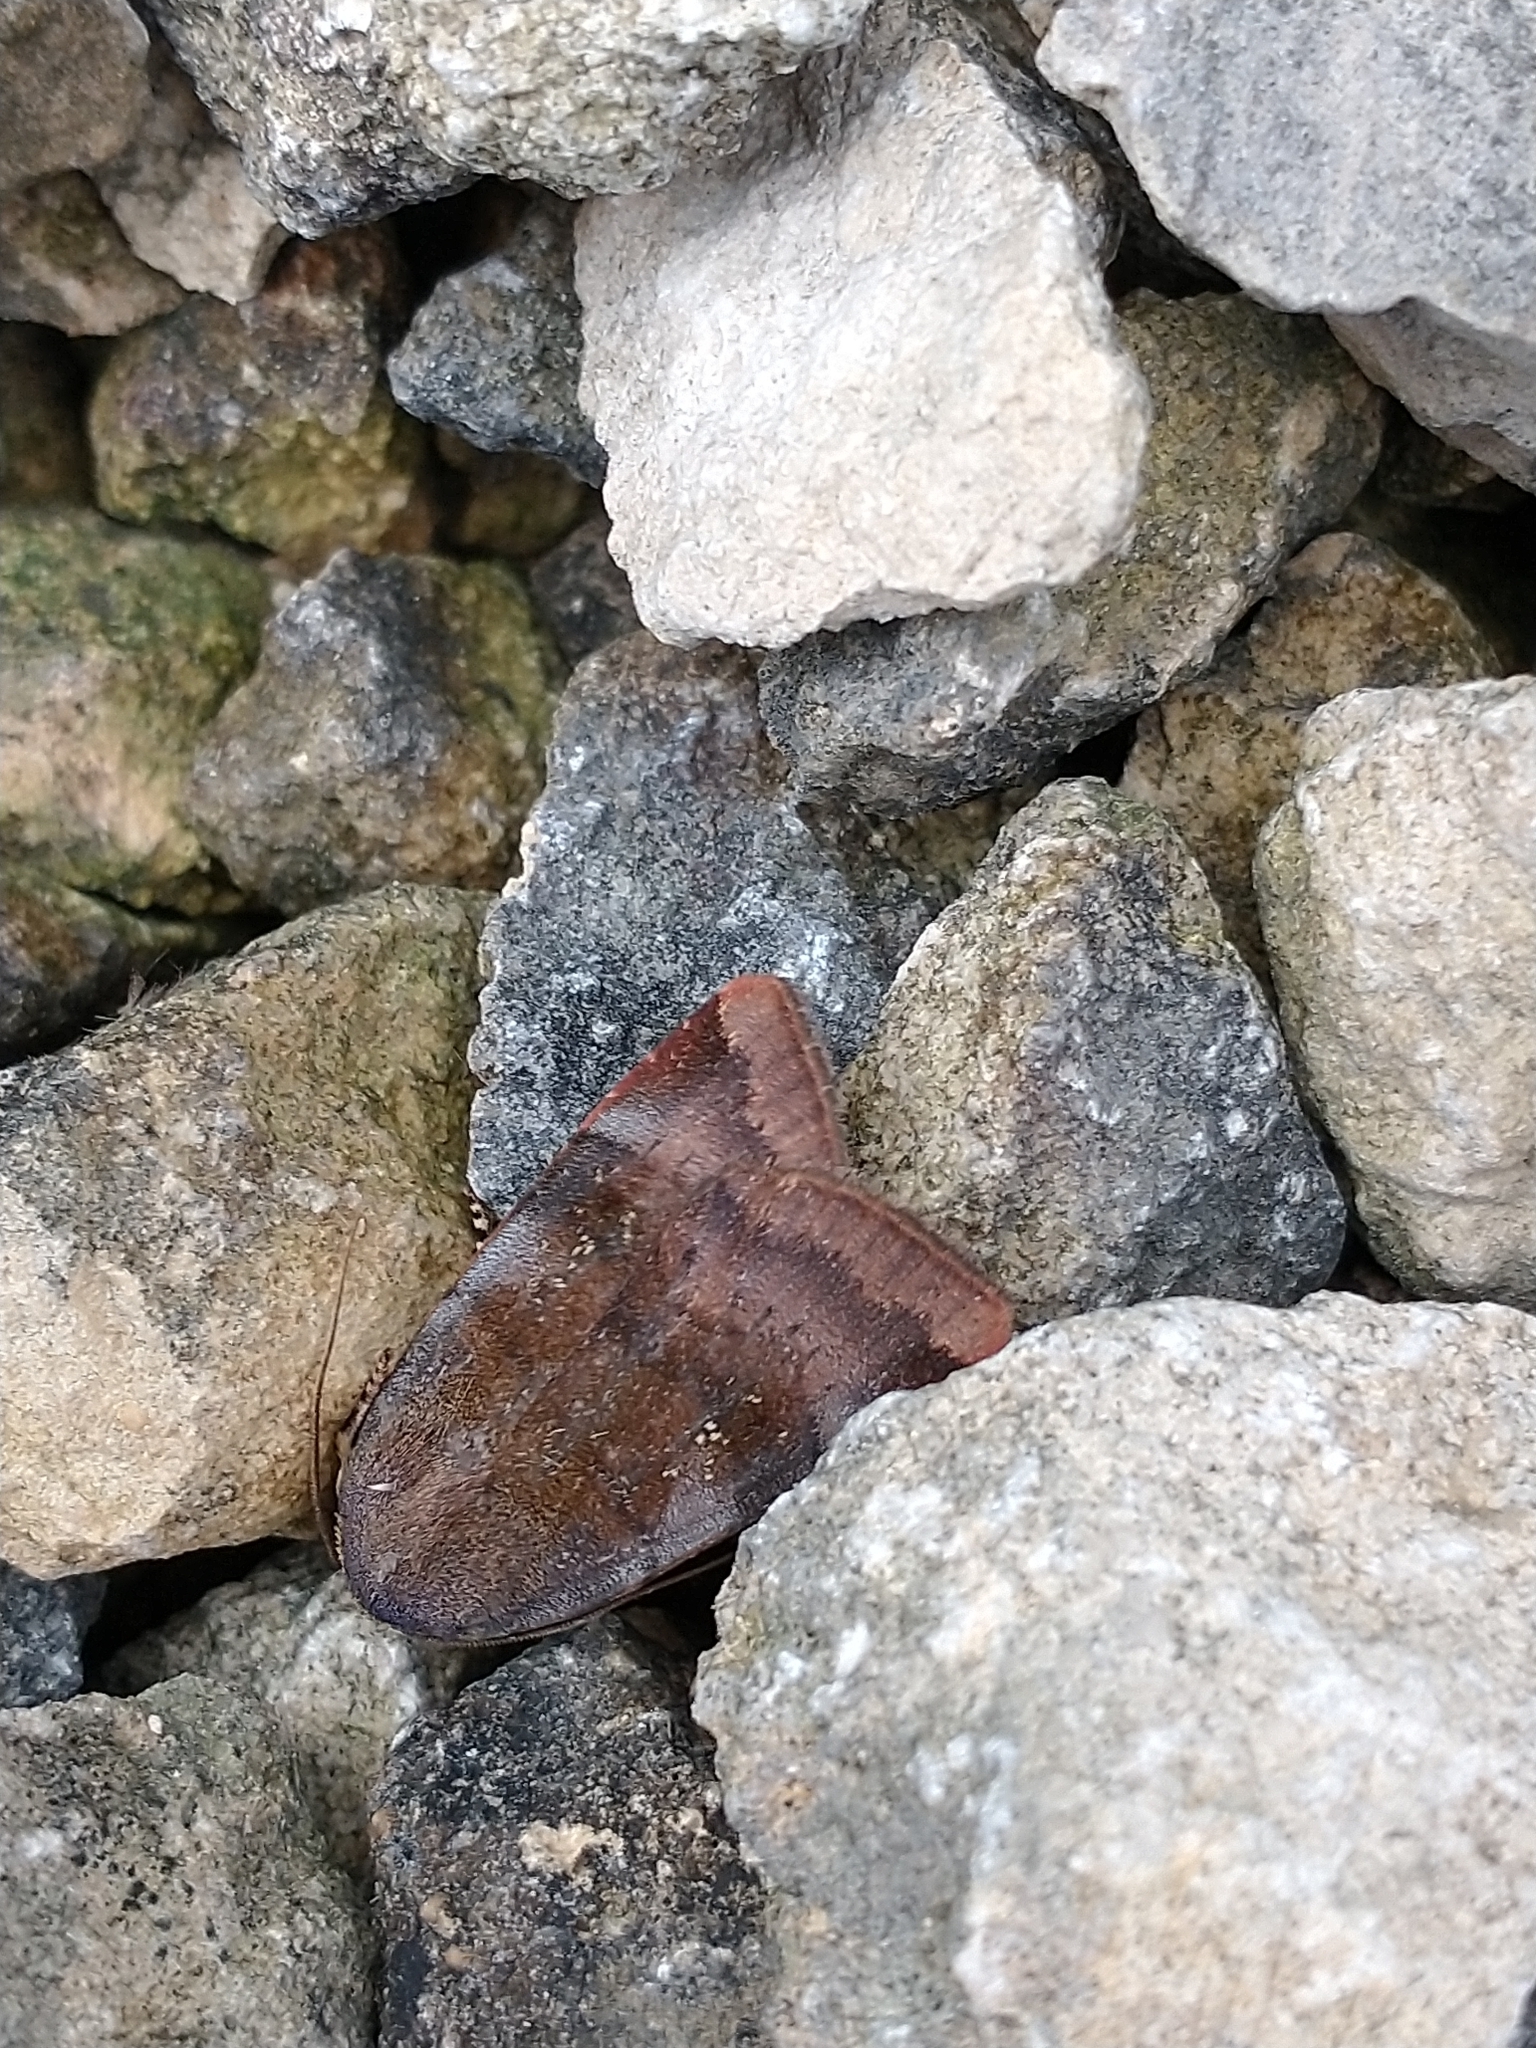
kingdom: Animalia
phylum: Arthropoda
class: Insecta
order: Lepidoptera
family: Noctuidae
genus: Noctua
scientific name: Noctua janthe
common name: Lesser broad-bordered yellow underwing
